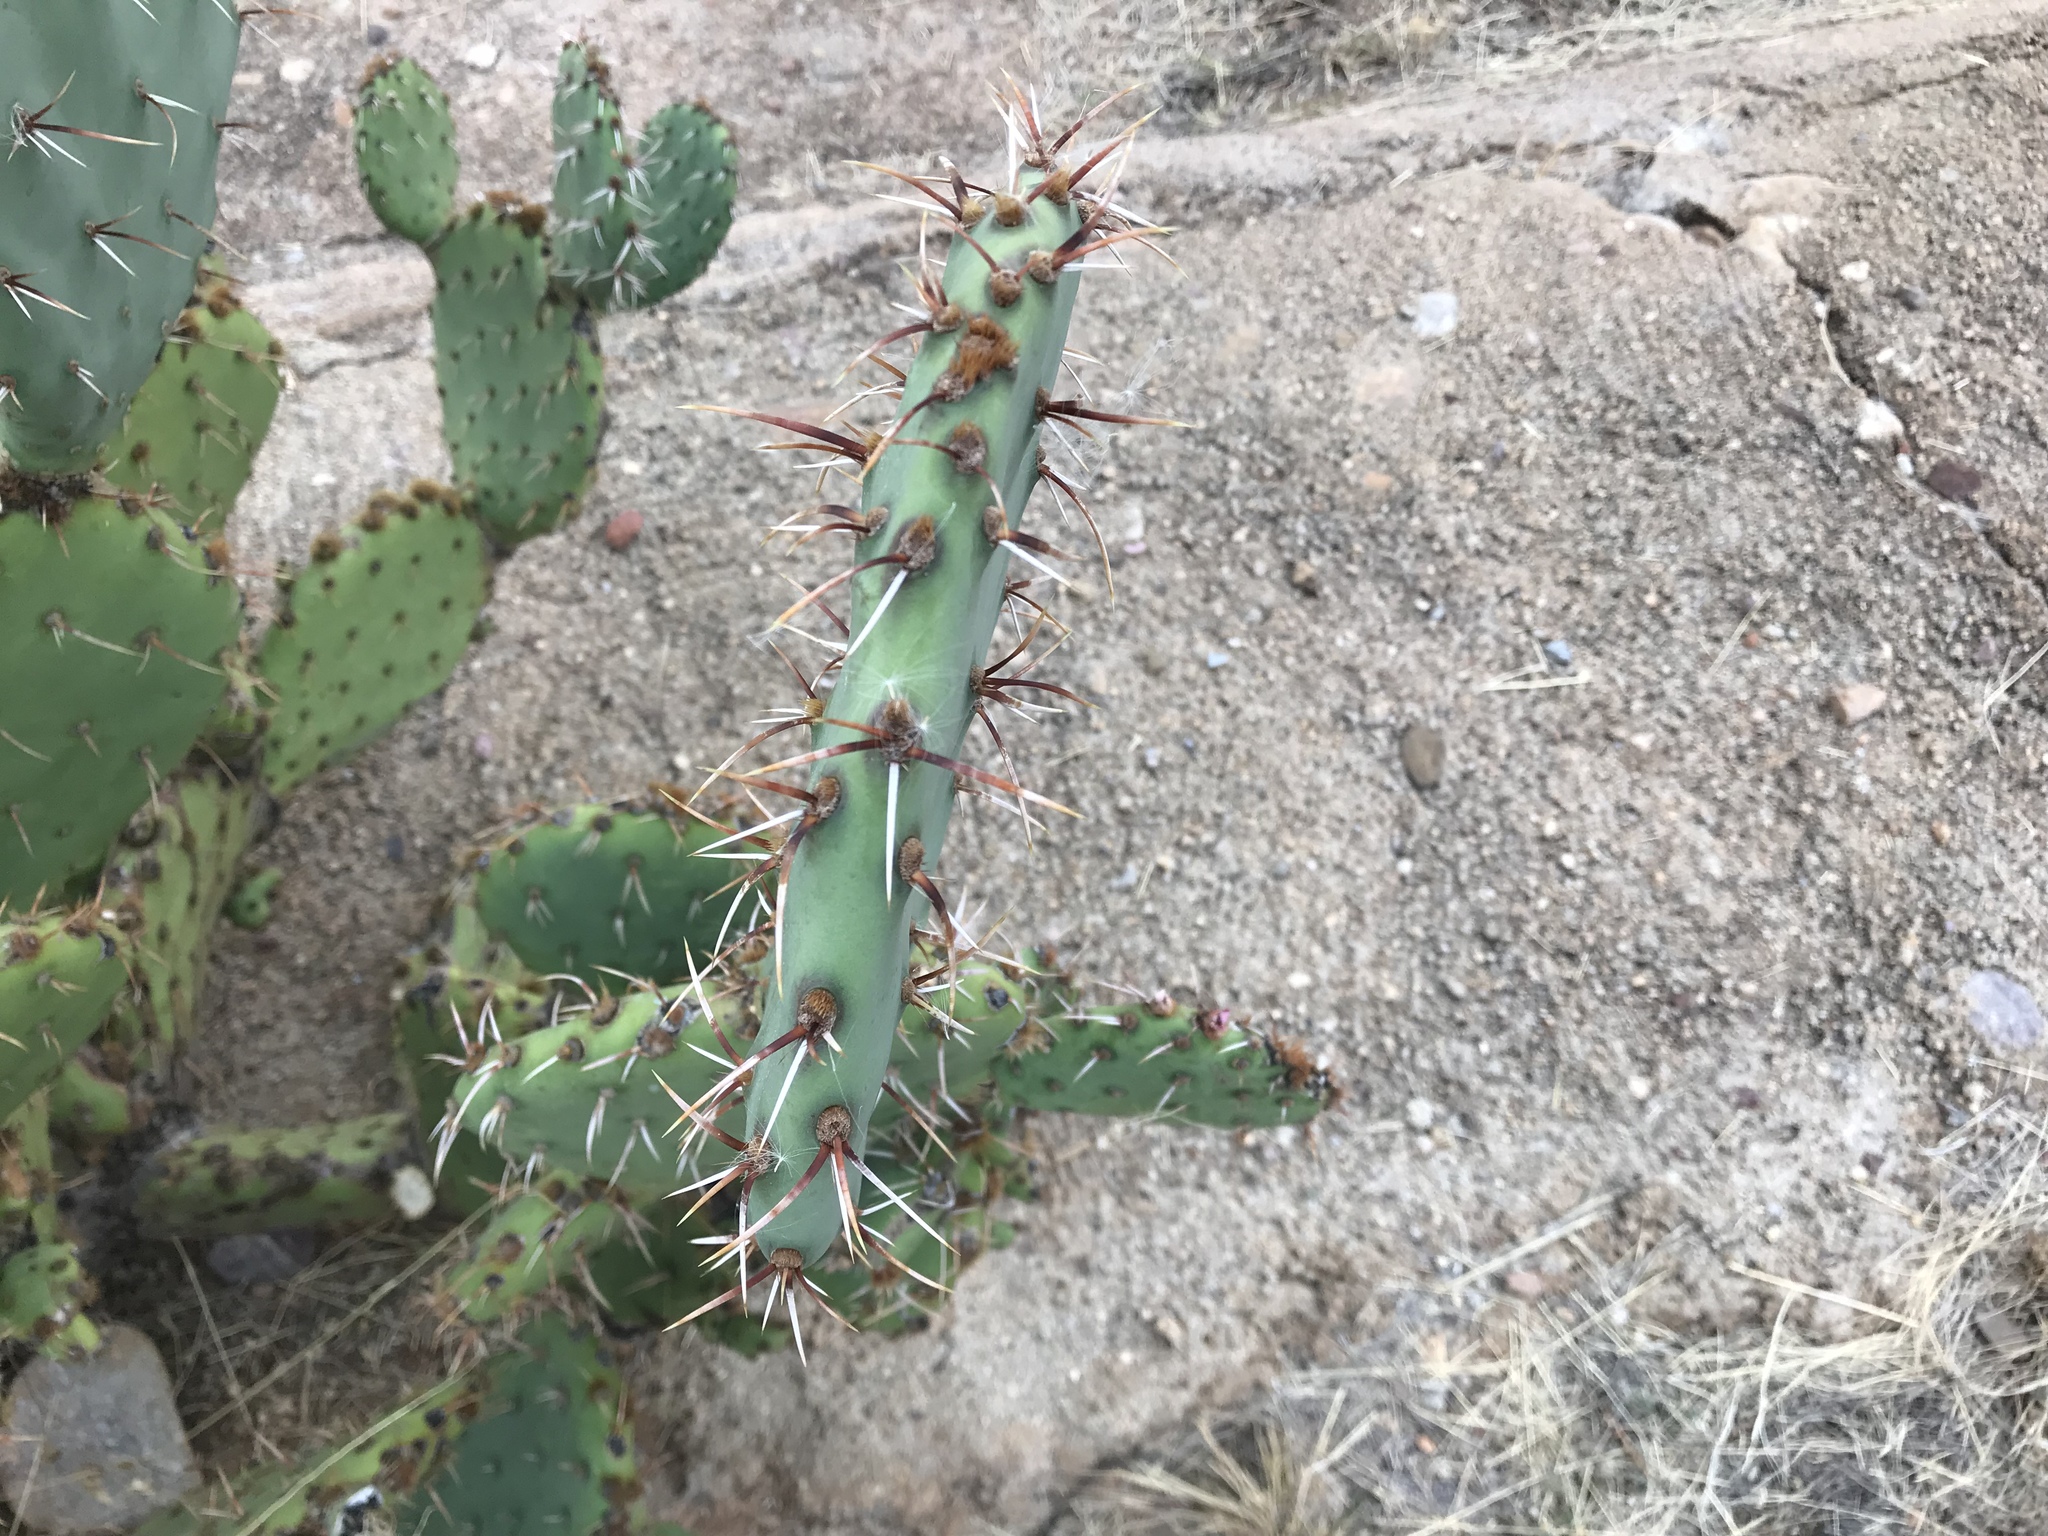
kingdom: Plantae
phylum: Tracheophyta
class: Magnoliopsida
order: Caryophyllales
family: Cactaceae
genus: Opuntia
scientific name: Opuntia engelmannii
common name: Cactus-apple
